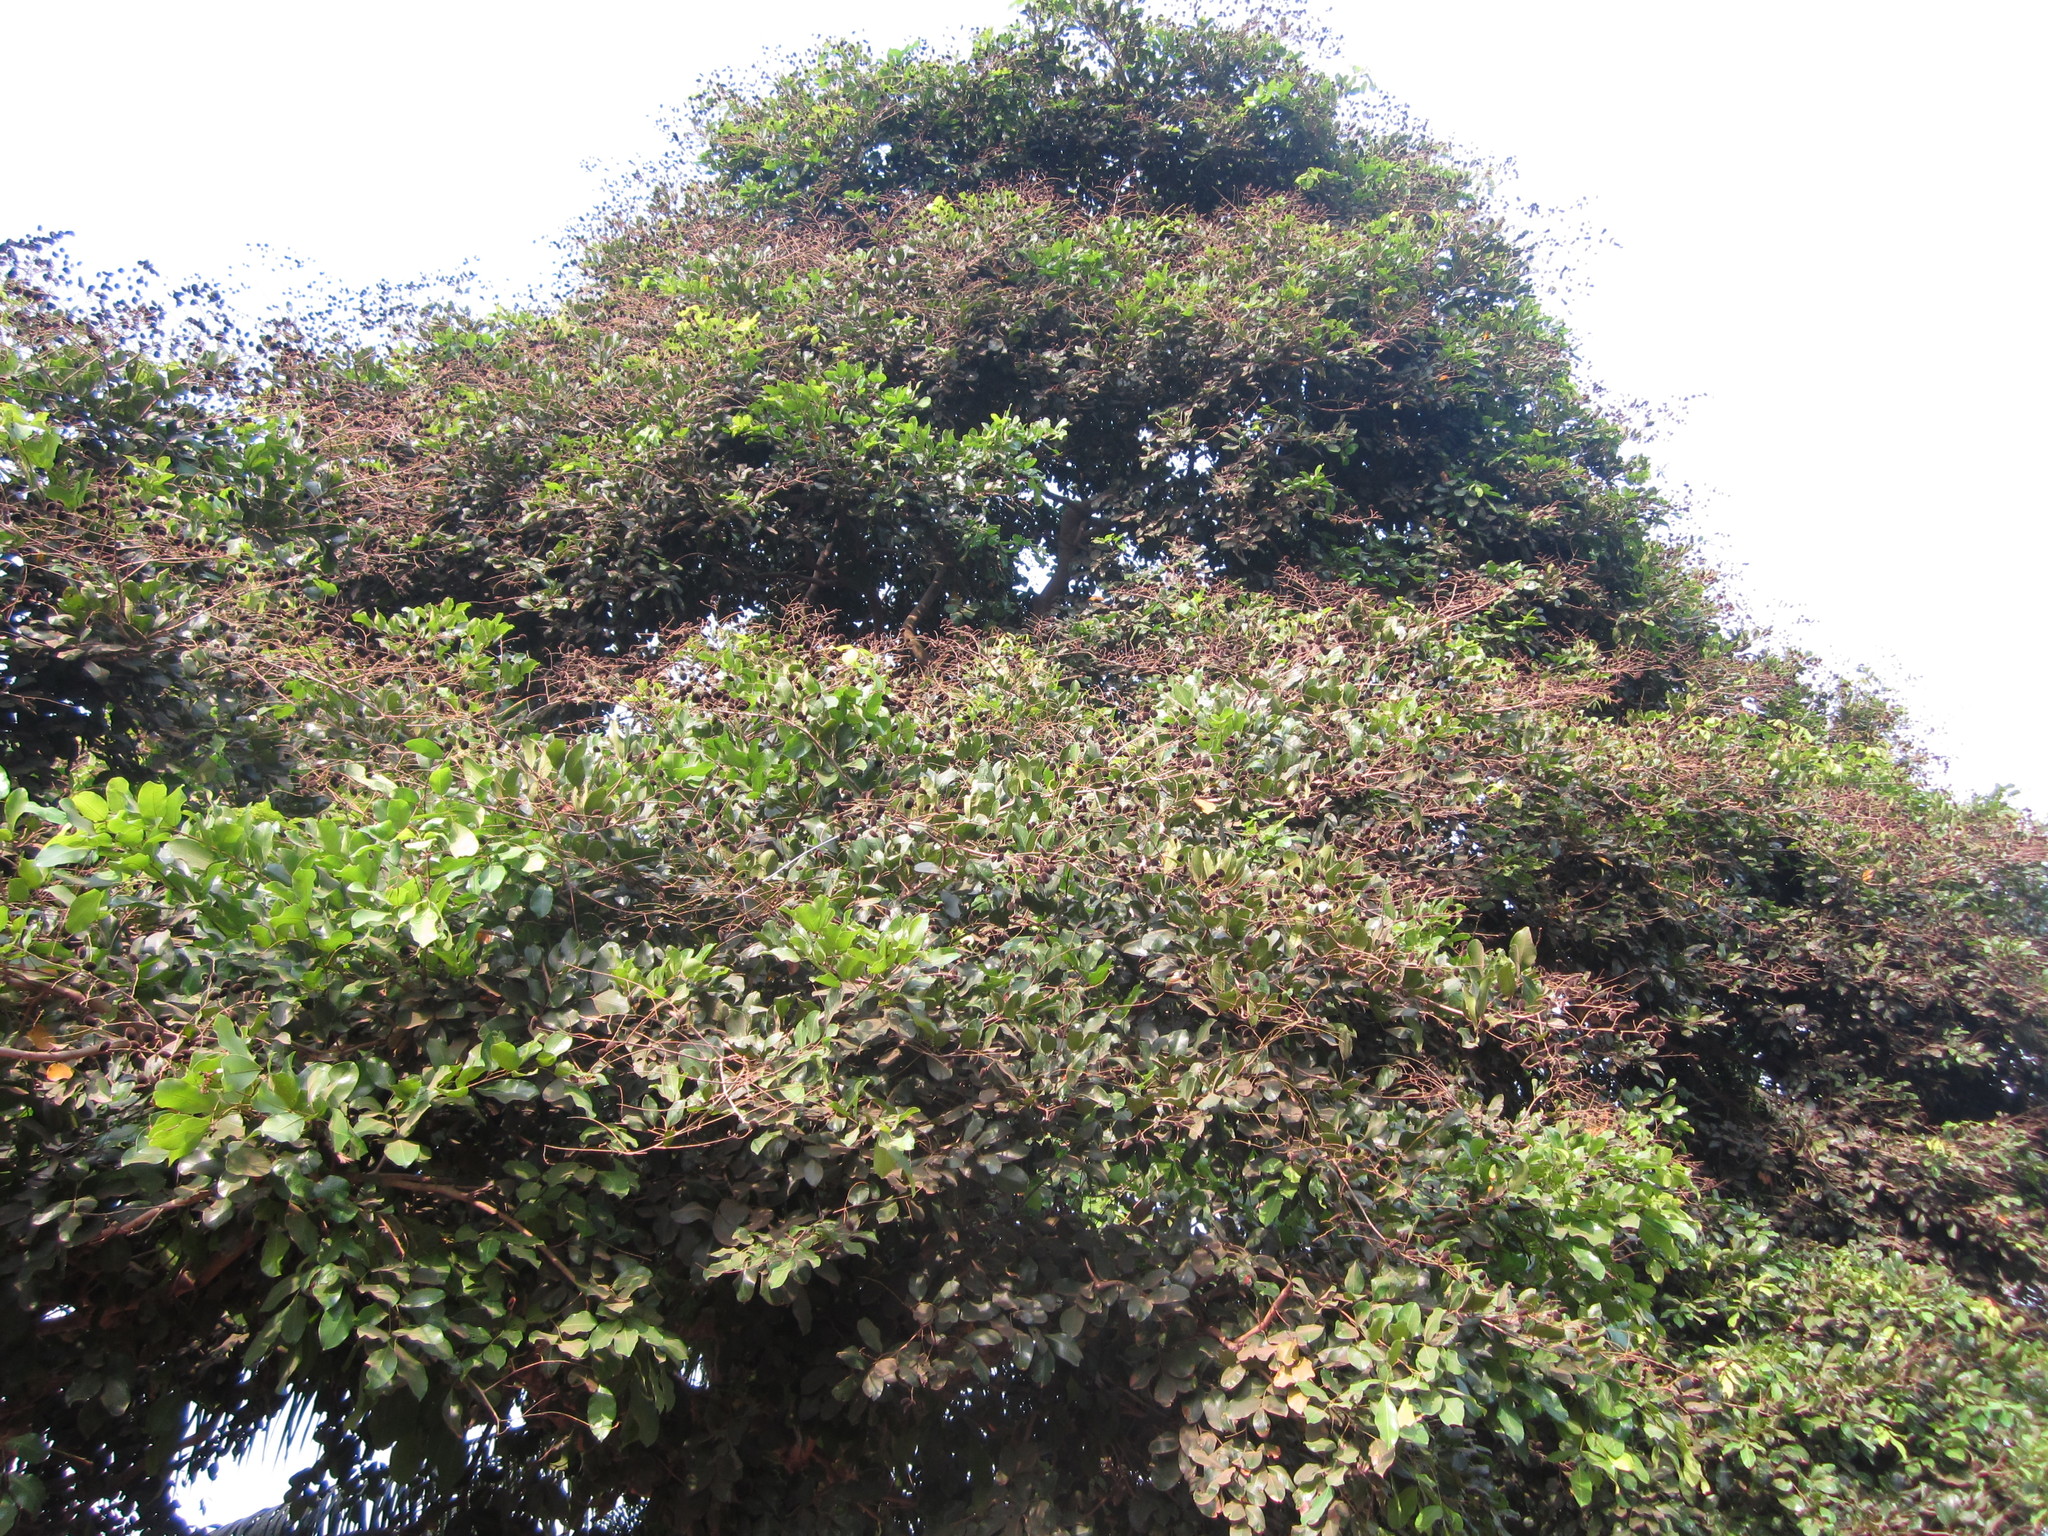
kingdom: Plantae
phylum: Tracheophyta
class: Magnoliopsida
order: Fabales
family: Fabaceae
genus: Dialium
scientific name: Dialium guineense
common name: Sierra leone-tamarind
